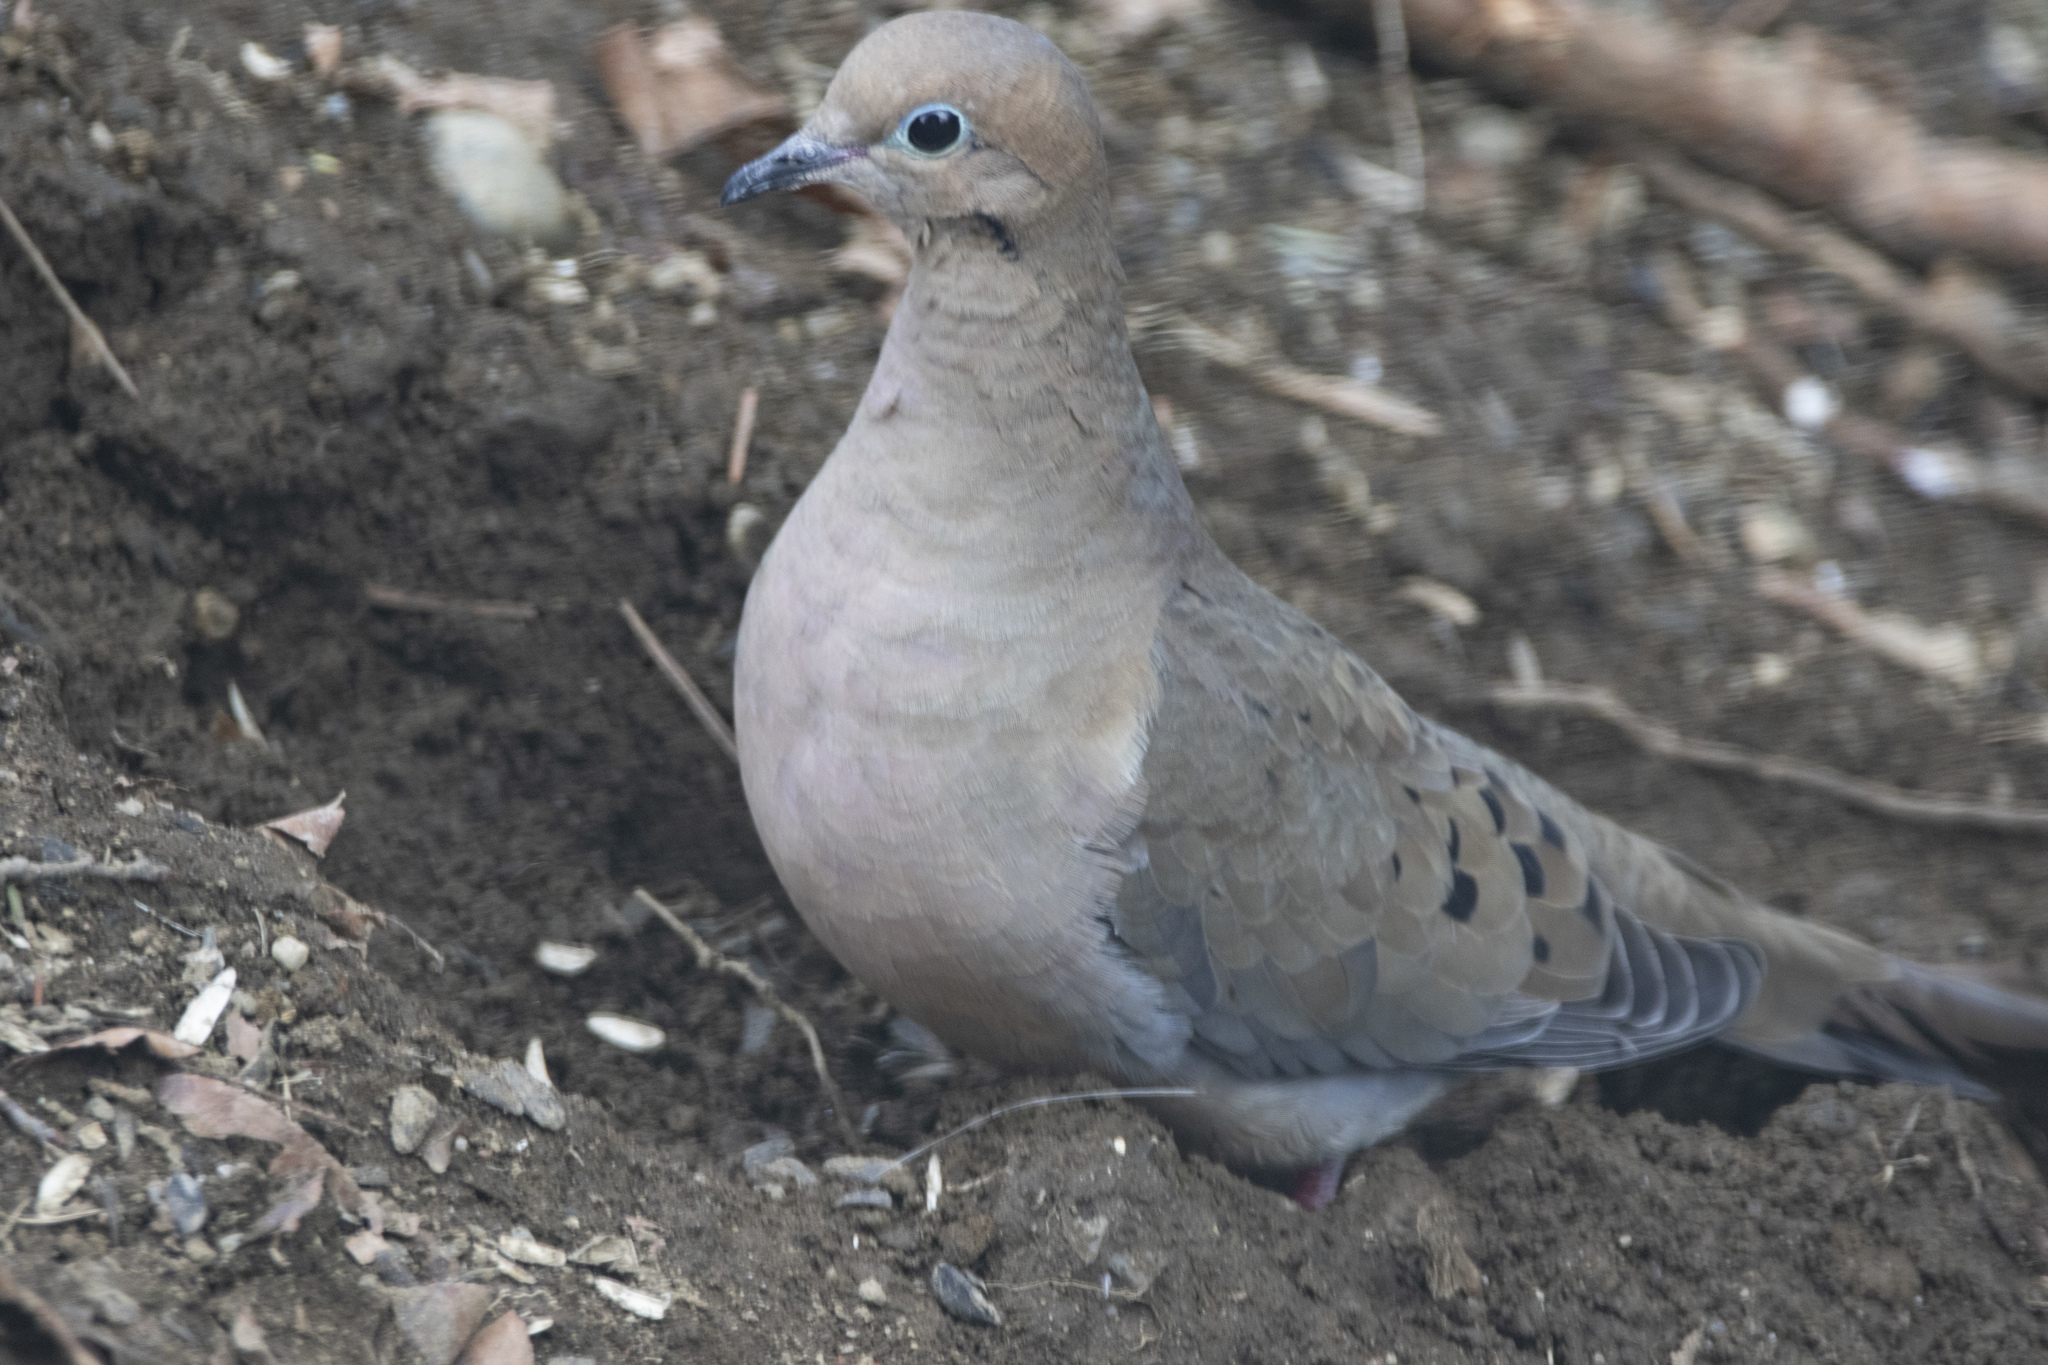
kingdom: Animalia
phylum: Chordata
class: Aves
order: Columbiformes
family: Columbidae
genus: Zenaida
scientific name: Zenaida macroura
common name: Mourning dove
